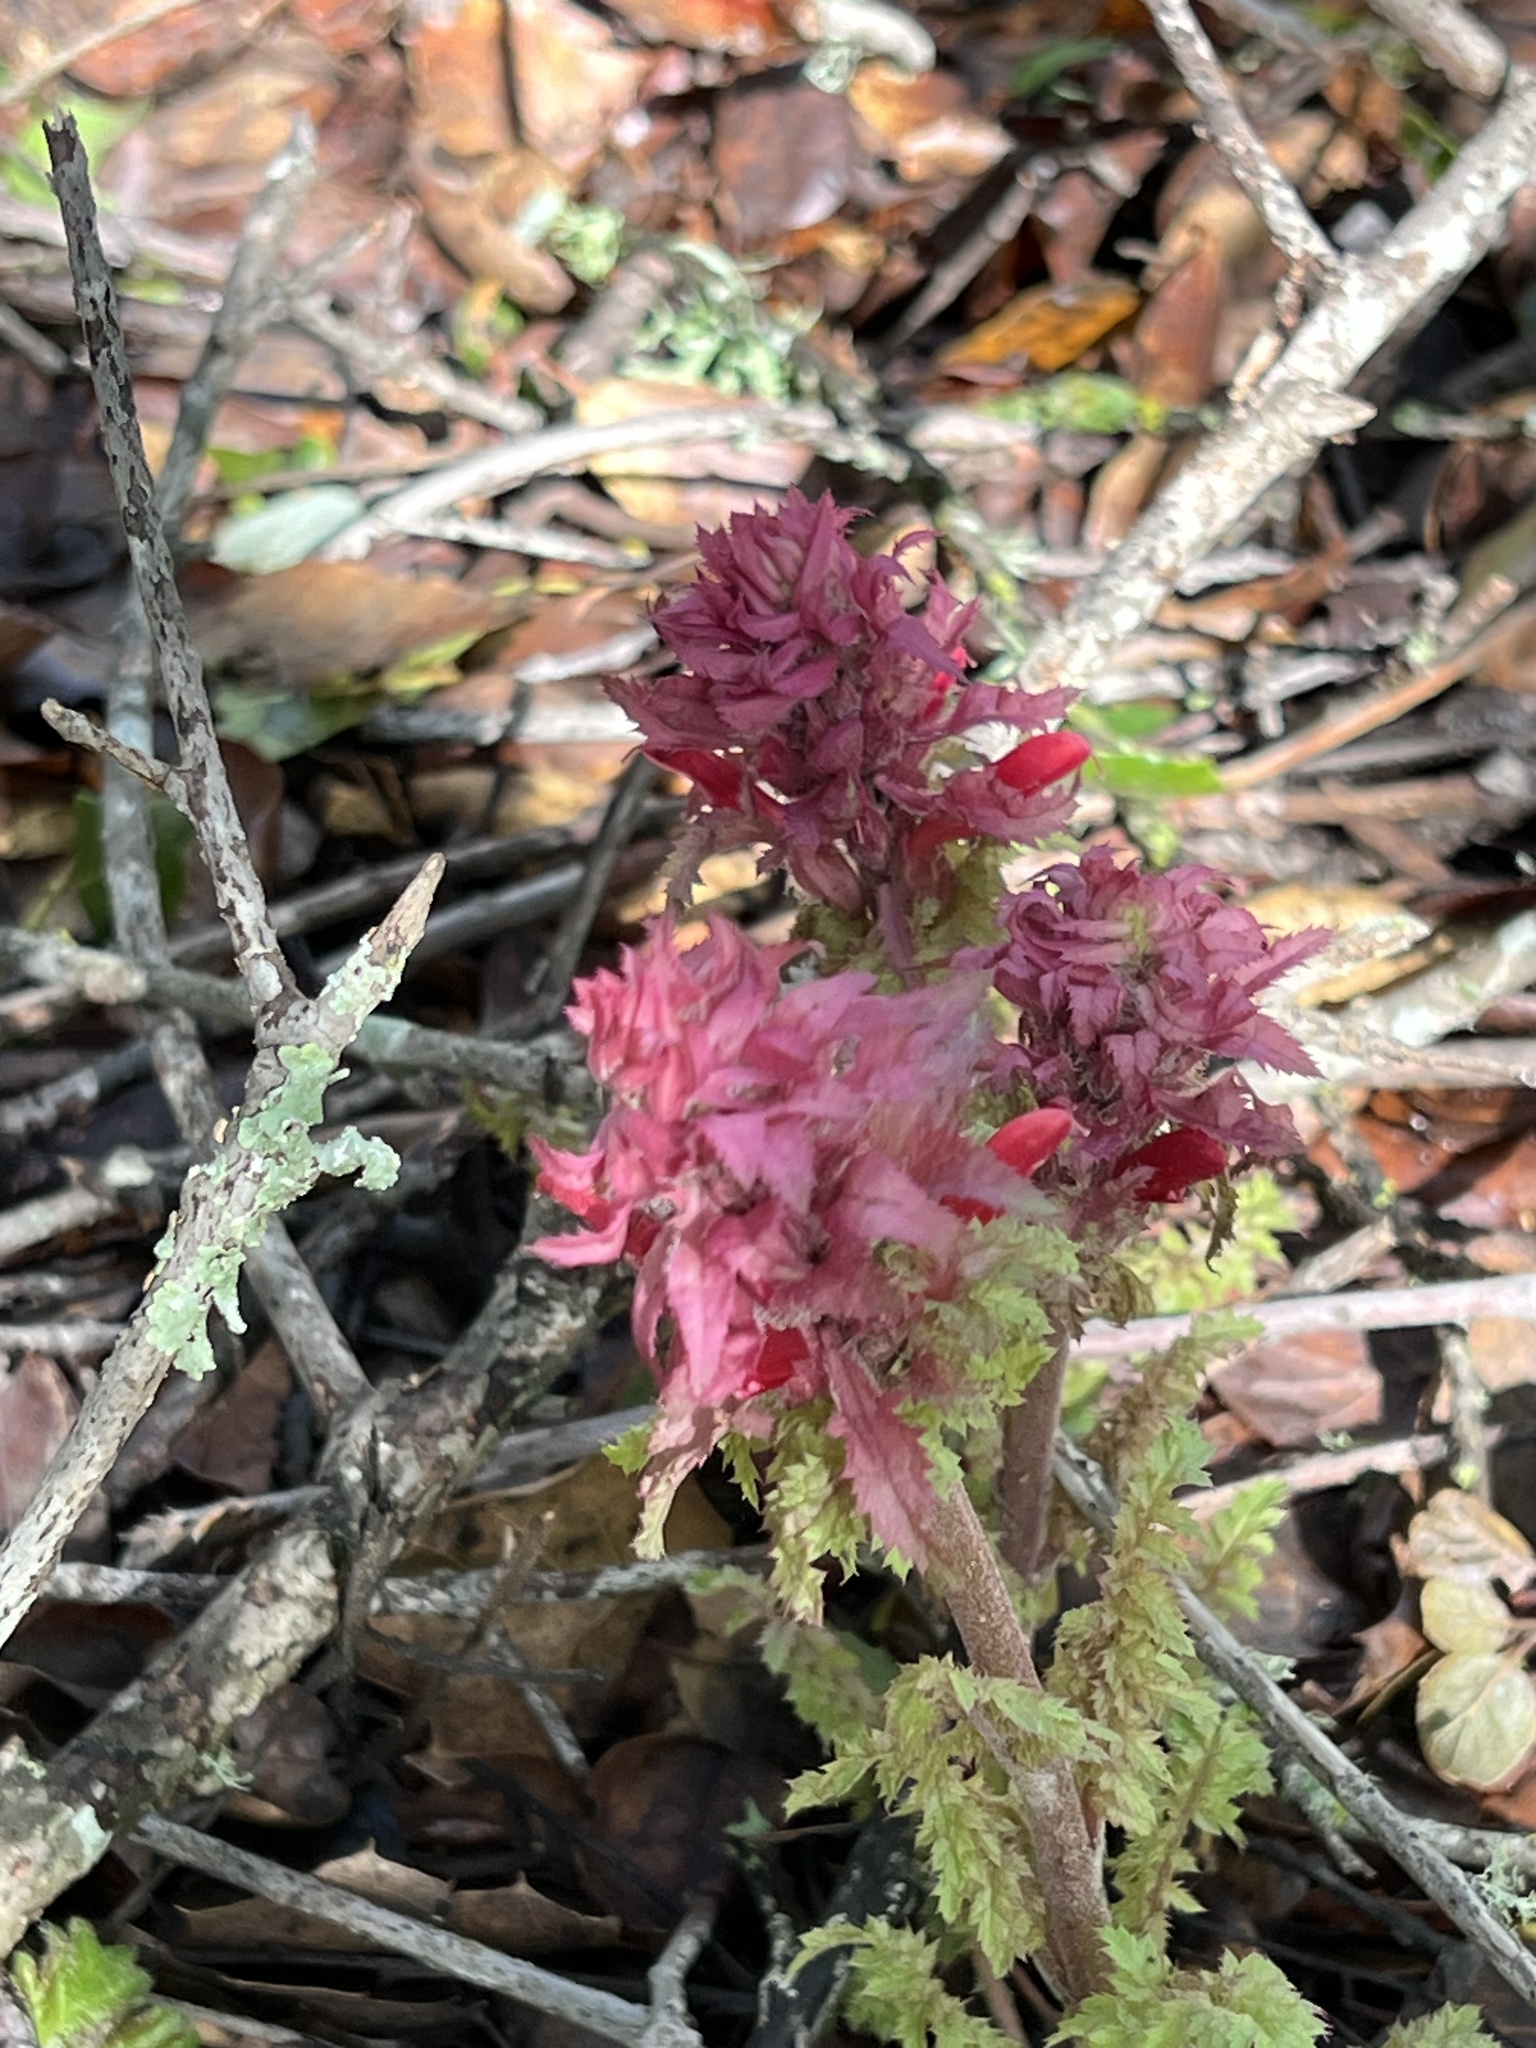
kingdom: Plantae
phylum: Tracheophyta
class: Magnoliopsida
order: Lamiales
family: Orobanchaceae
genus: Pedicularis
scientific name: Pedicularis densiflora
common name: Indian warrior
